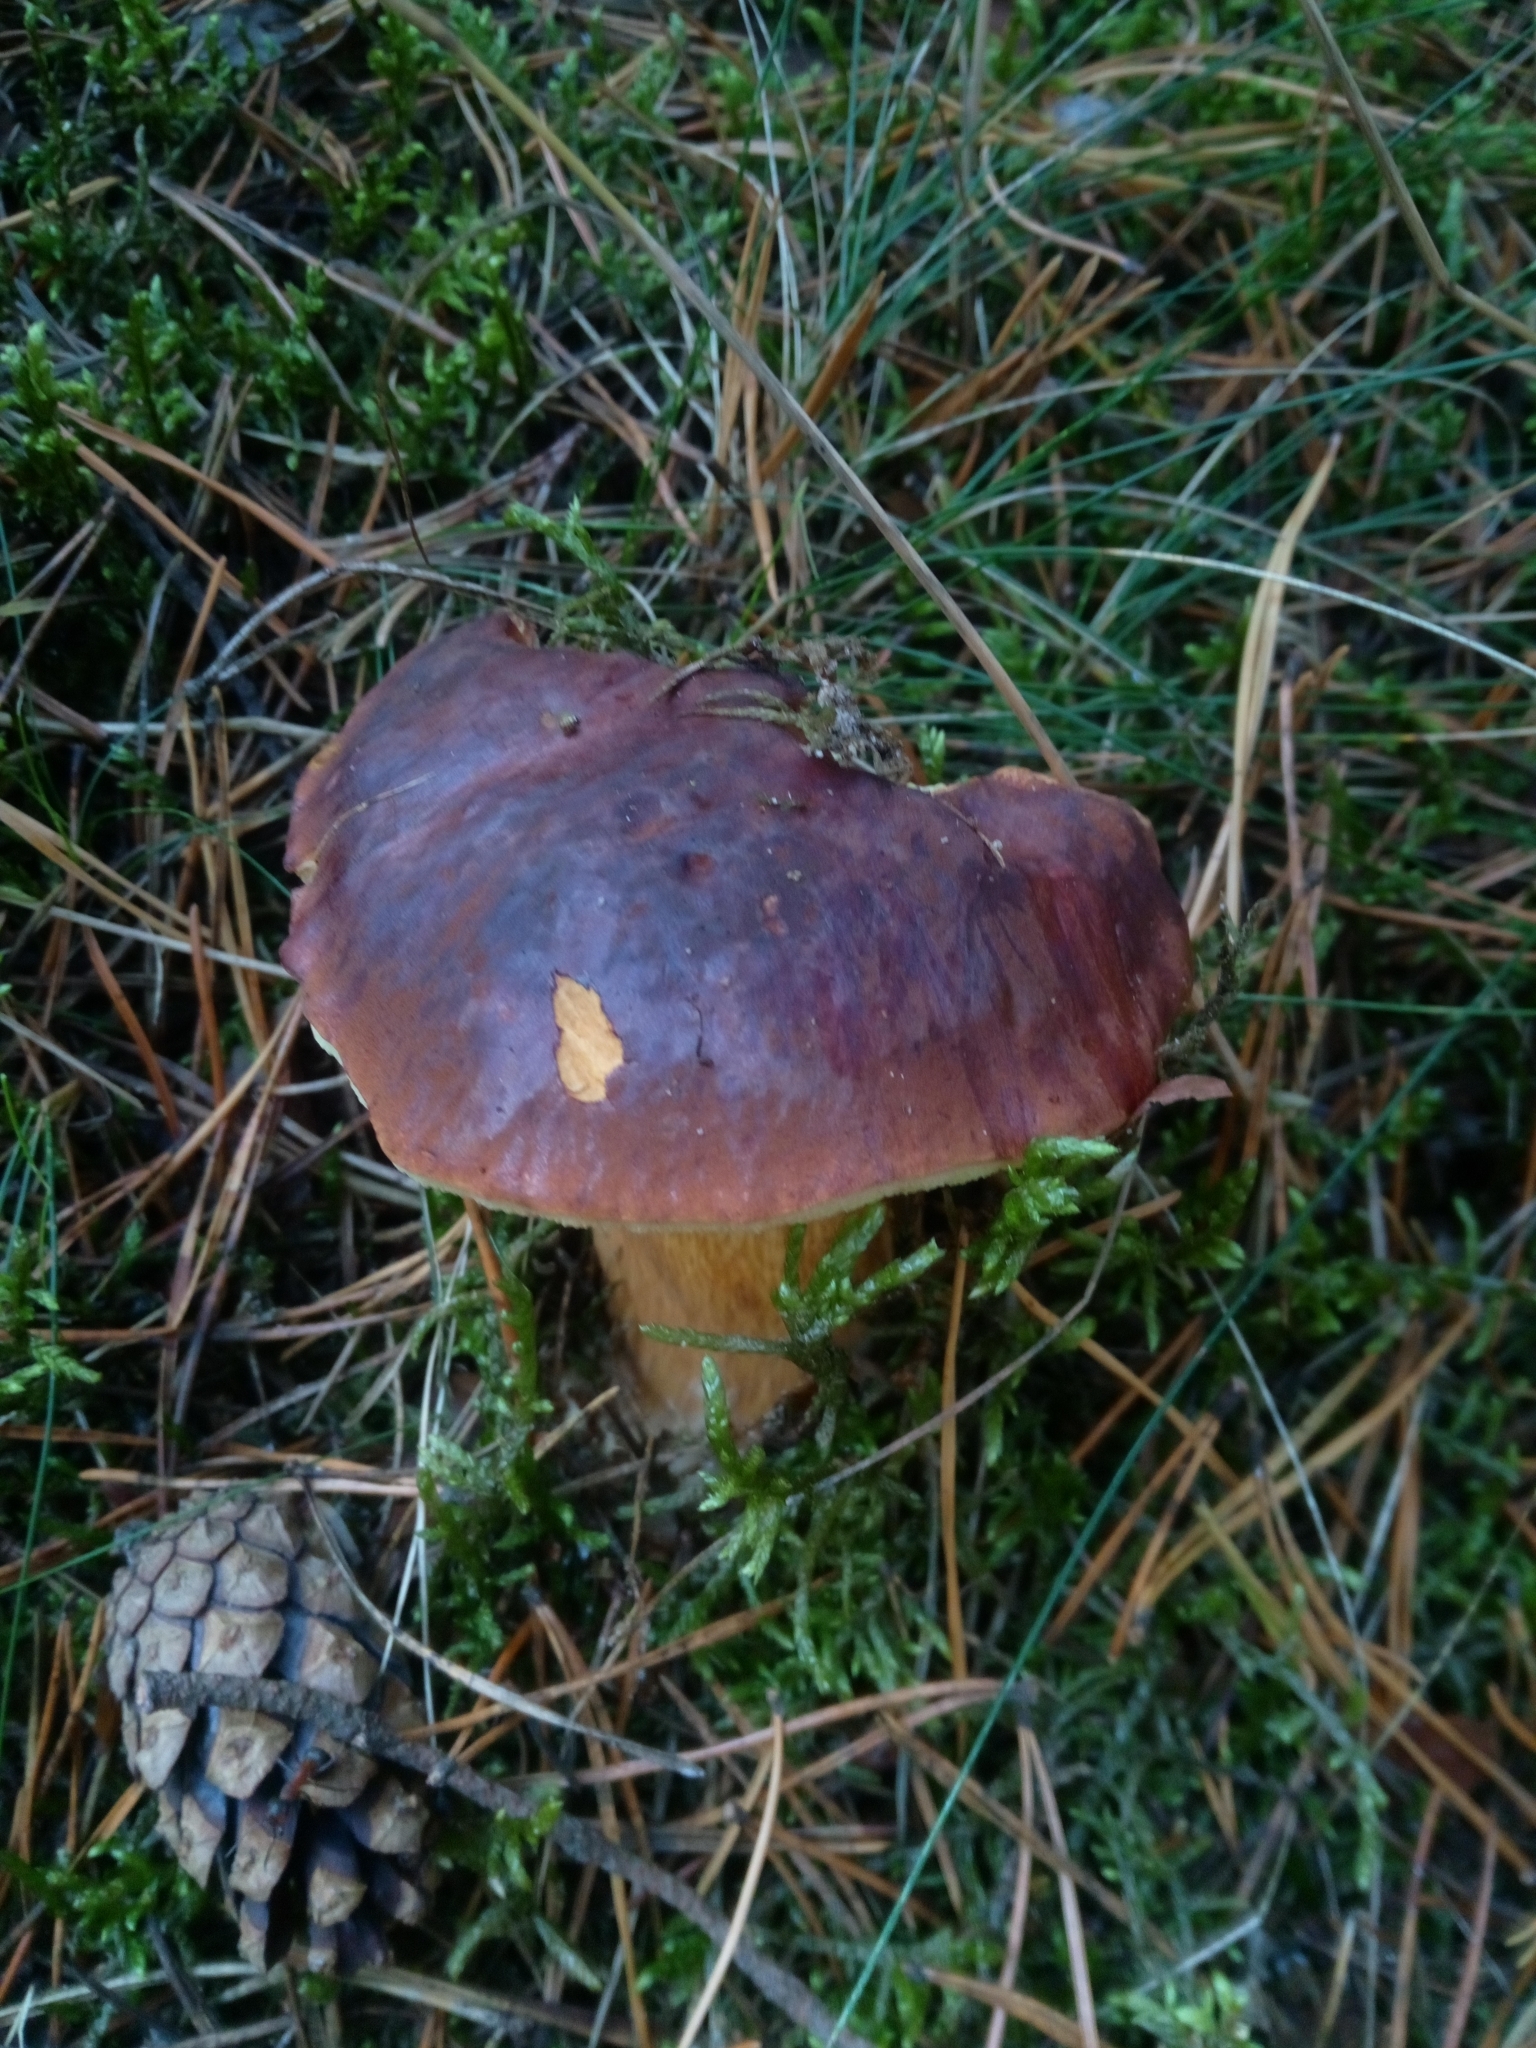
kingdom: Fungi
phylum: Basidiomycota
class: Agaricomycetes
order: Boletales
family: Boletaceae
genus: Imleria
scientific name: Imleria badia
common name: Bay bolete
